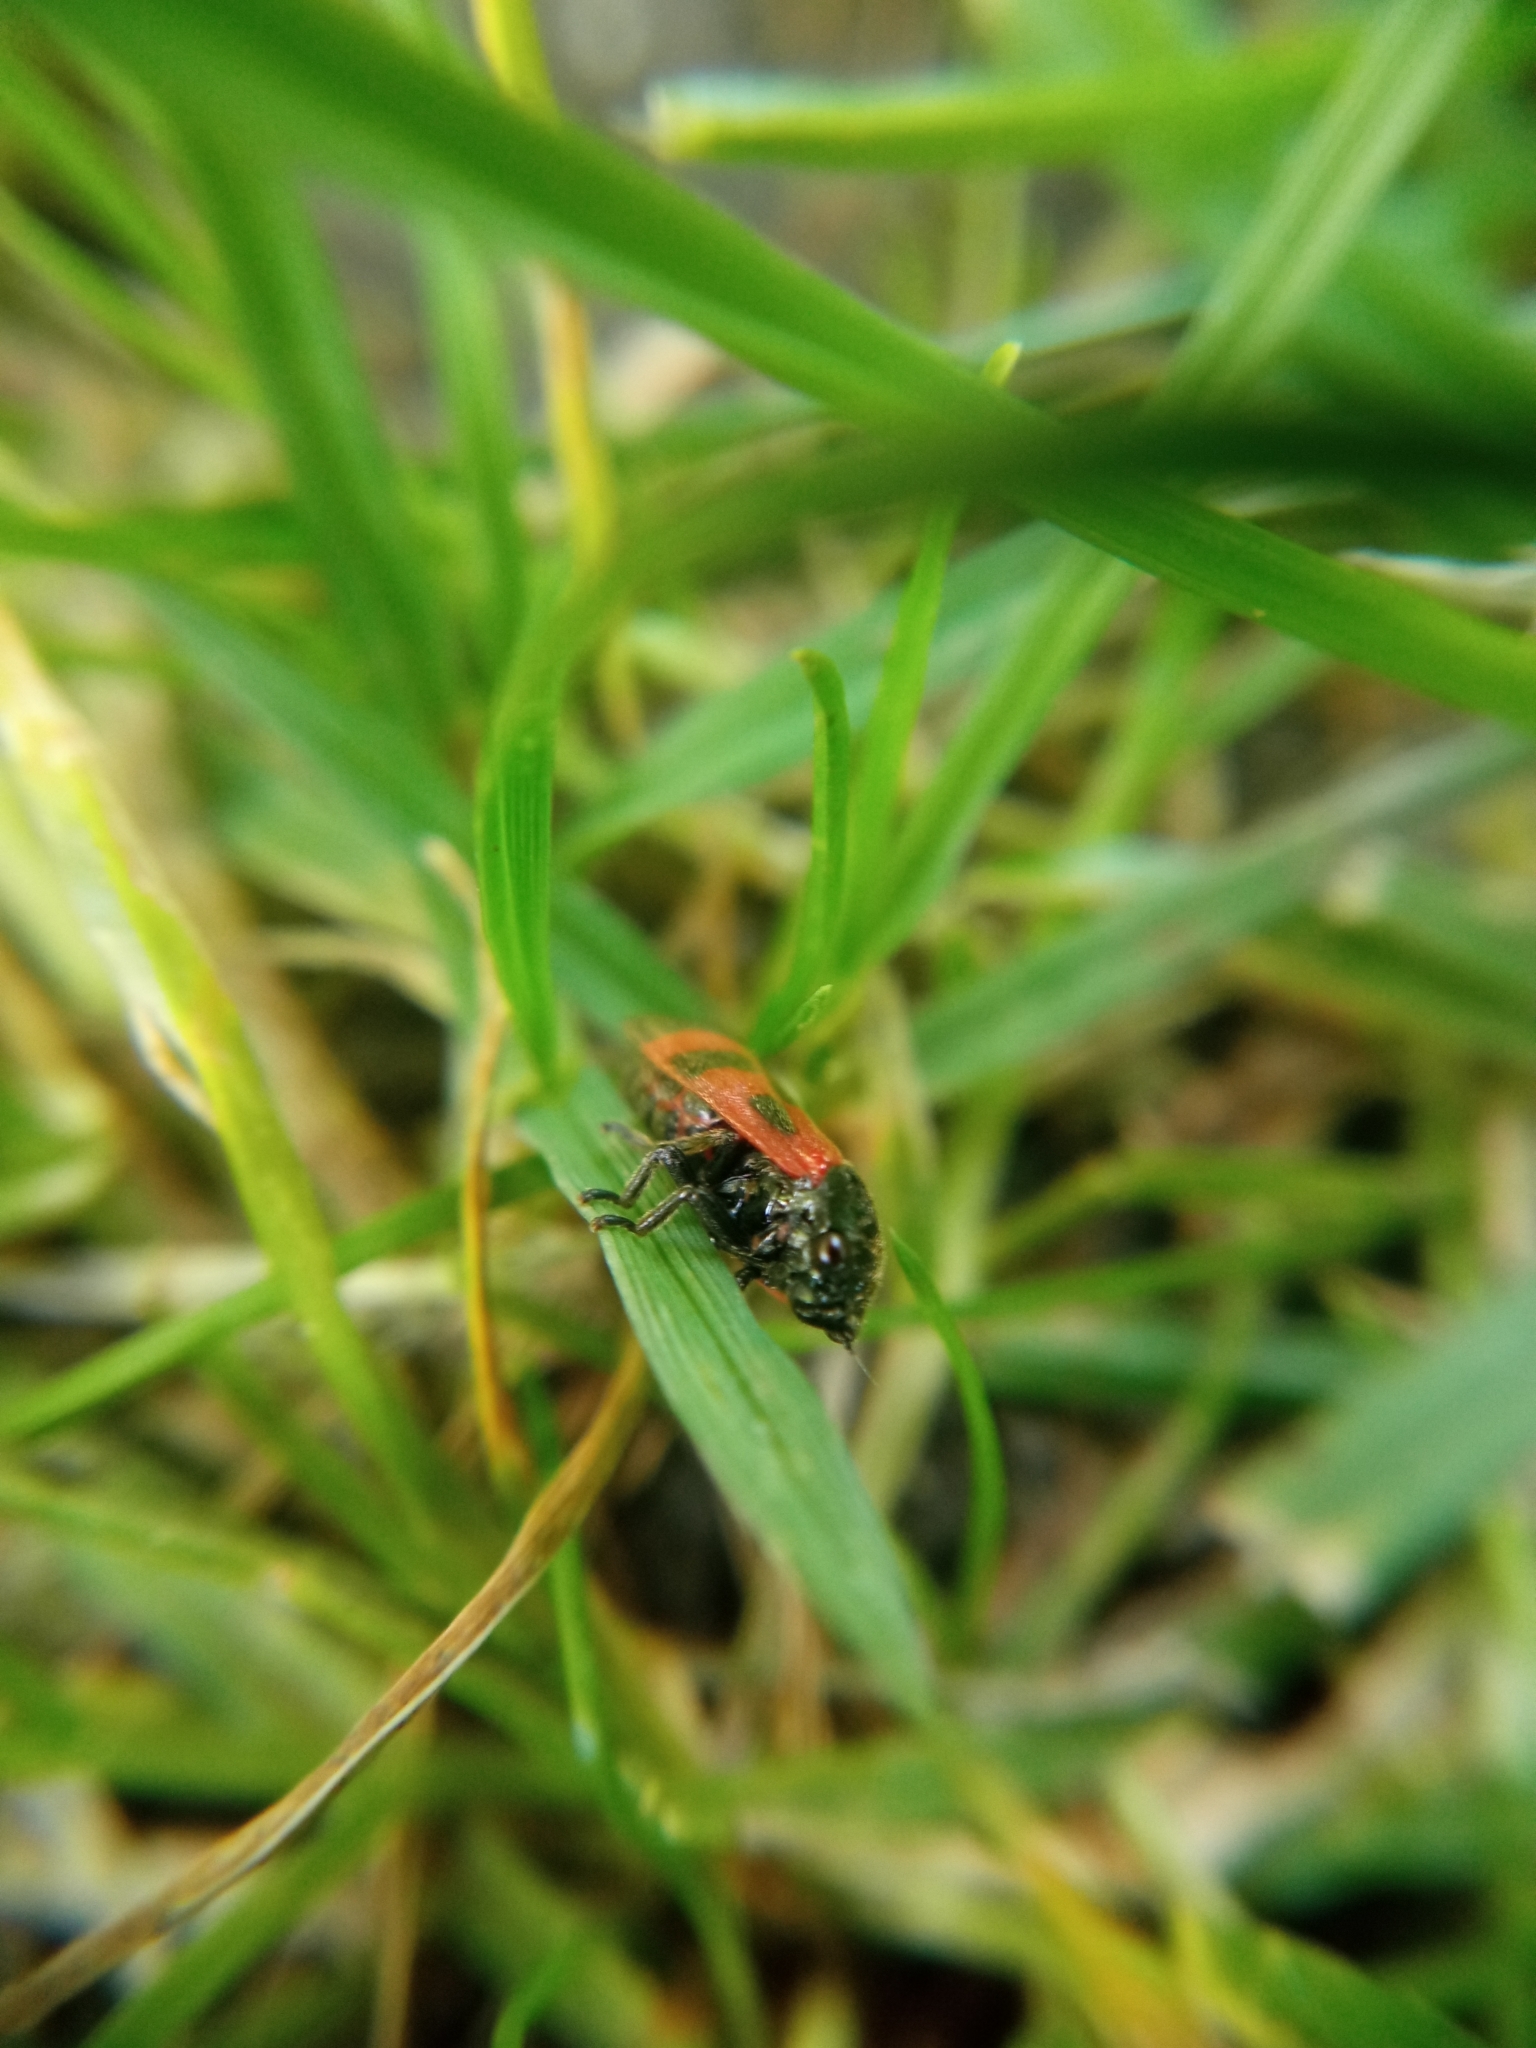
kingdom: Animalia
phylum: Arthropoda
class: Insecta
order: Hemiptera
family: Cercopidae
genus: Haematoloma
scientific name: Haematoloma dorsata
